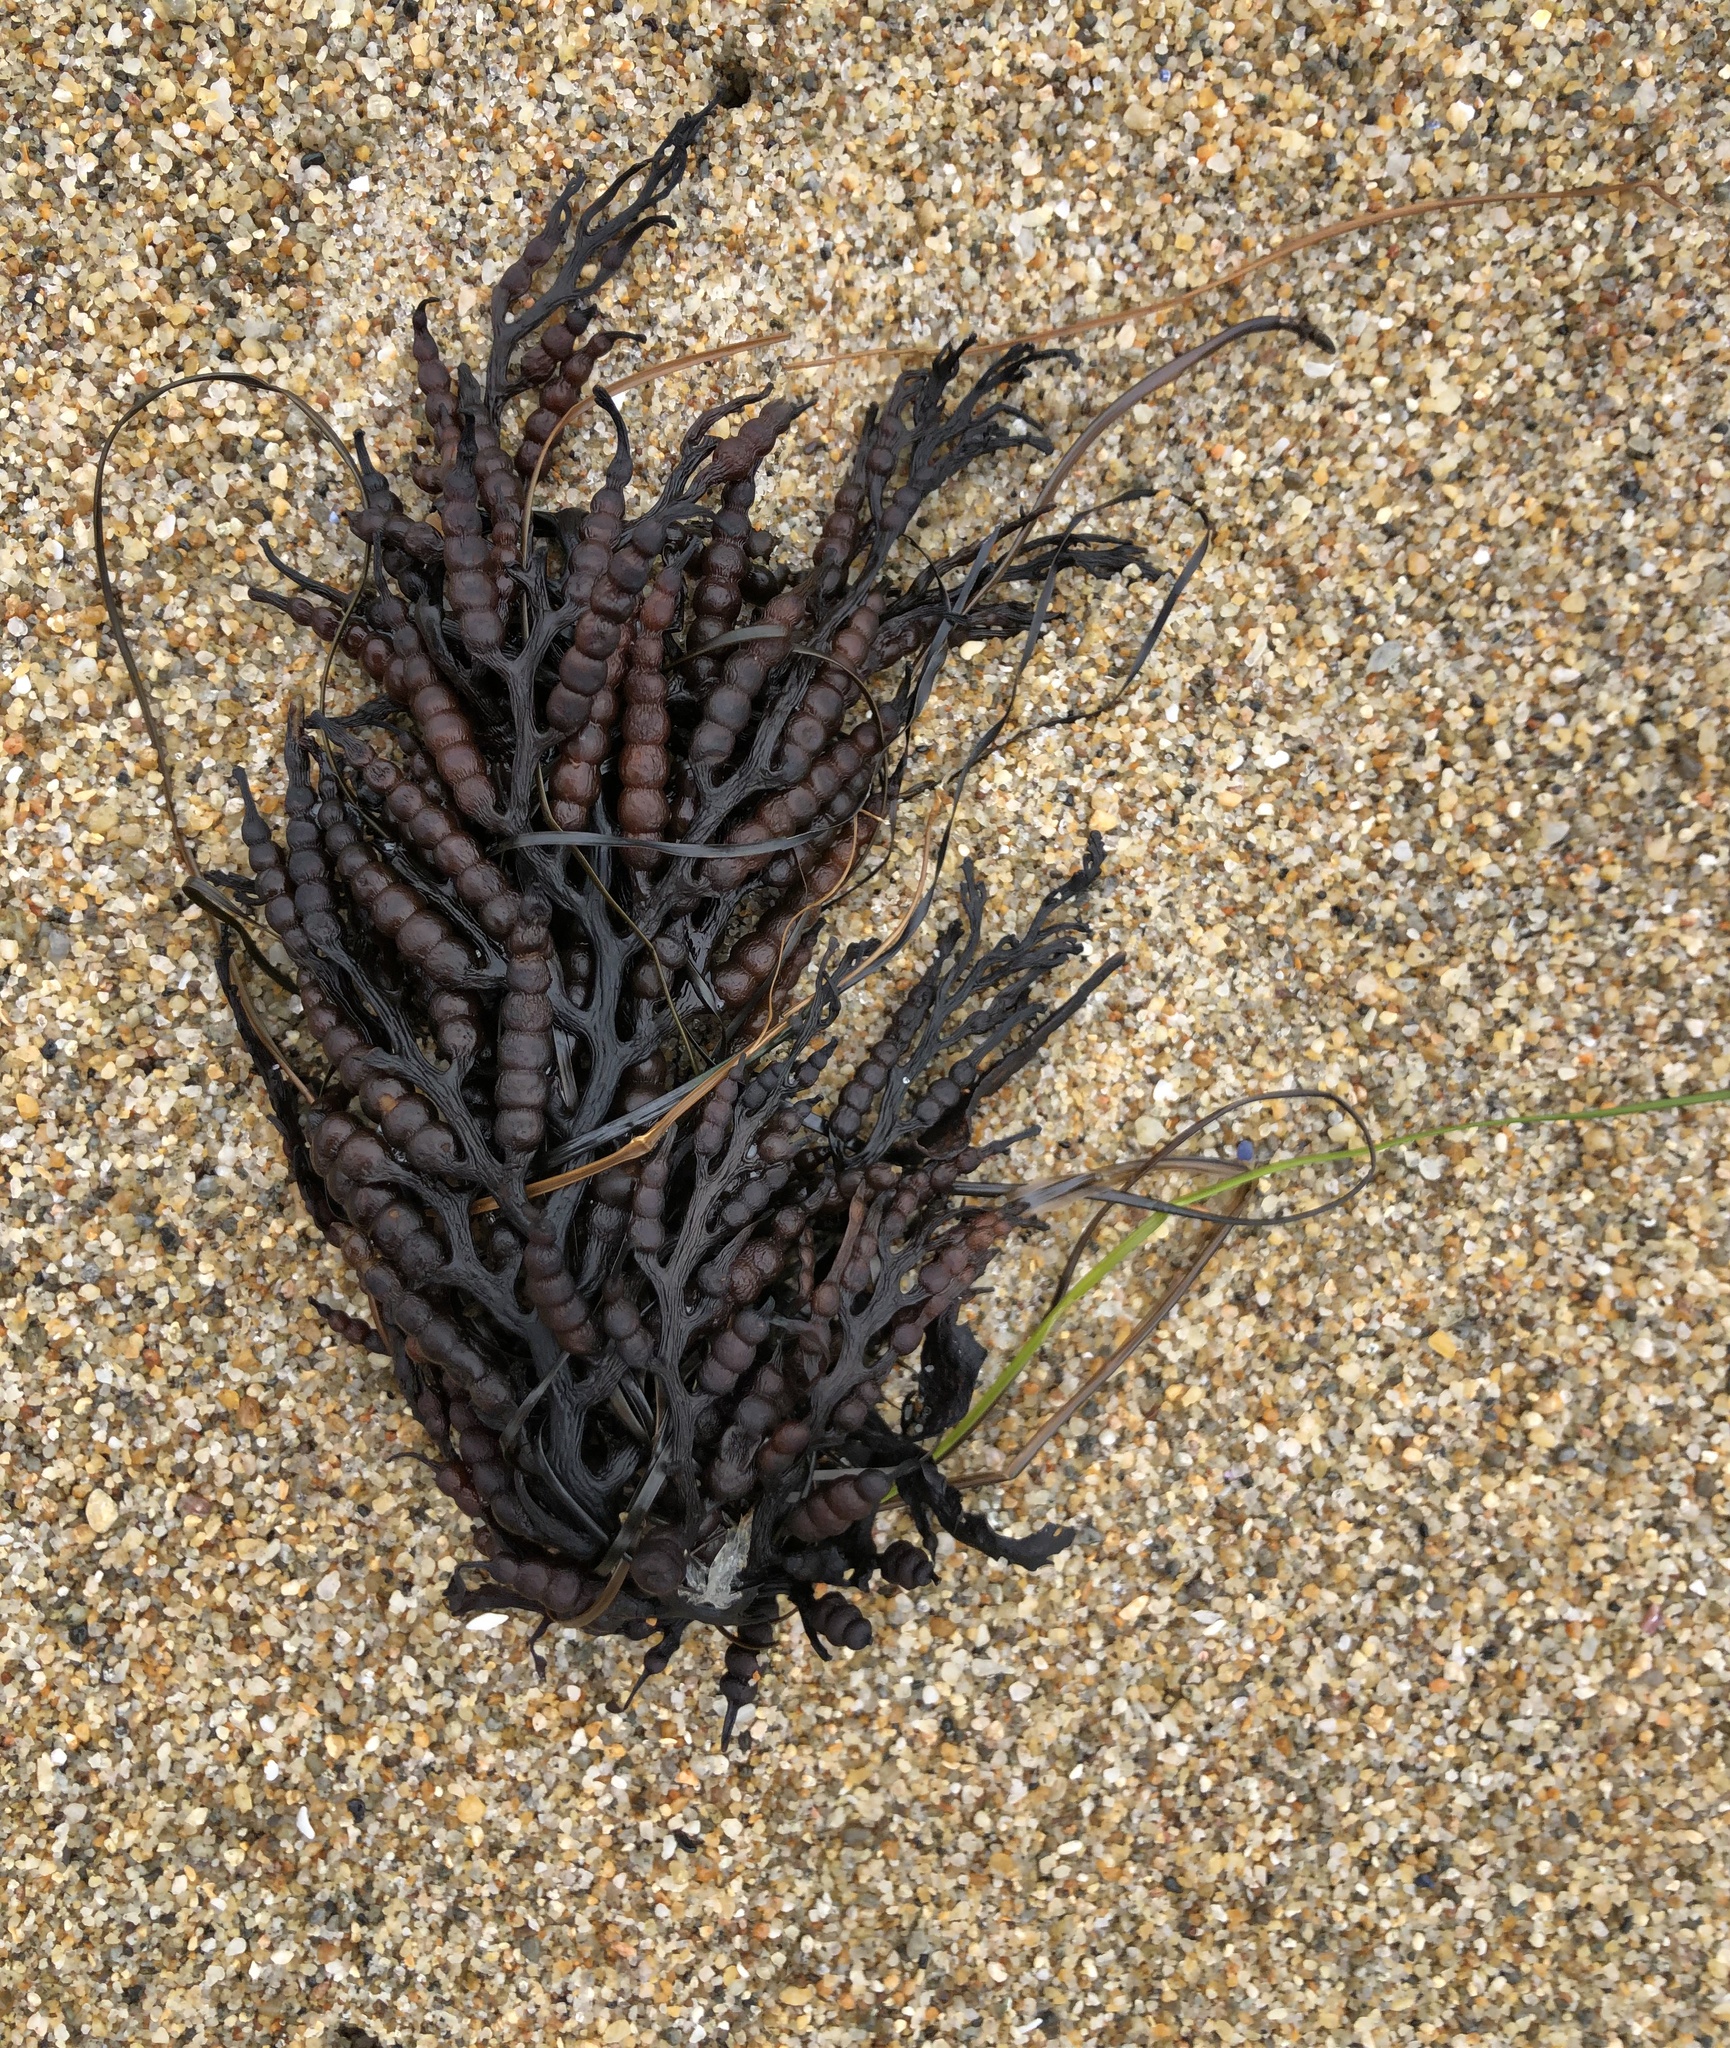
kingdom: Chromista
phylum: Ochrophyta
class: Phaeophyceae
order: Fucales
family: Sargassaceae
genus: Stephanocystis
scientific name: Stephanocystis
